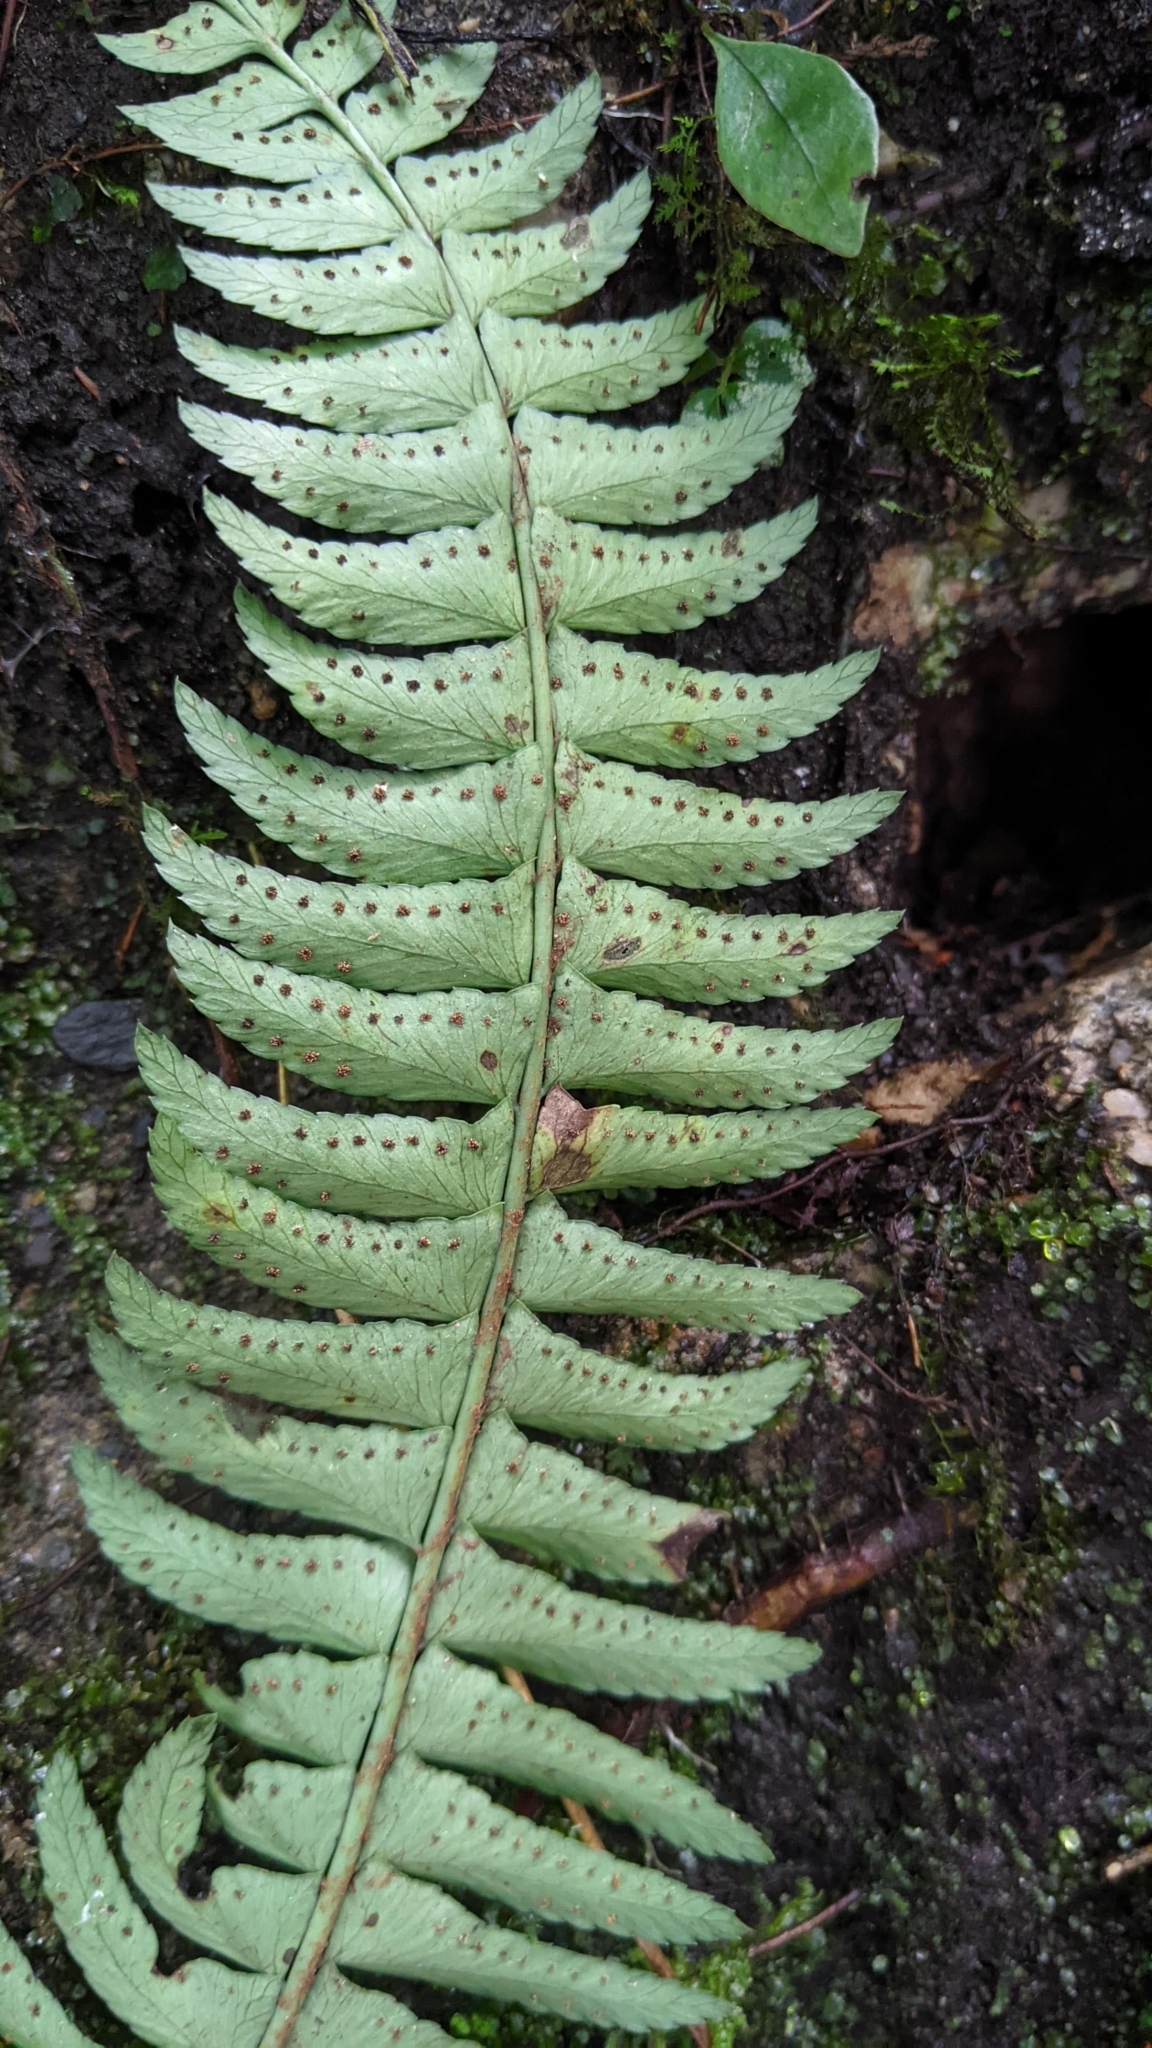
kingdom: Plantae
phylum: Tracheophyta
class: Polypodiopsida
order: Polypodiales
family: Dryopteridaceae
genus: Polystichum
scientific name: Polystichum acutidens
